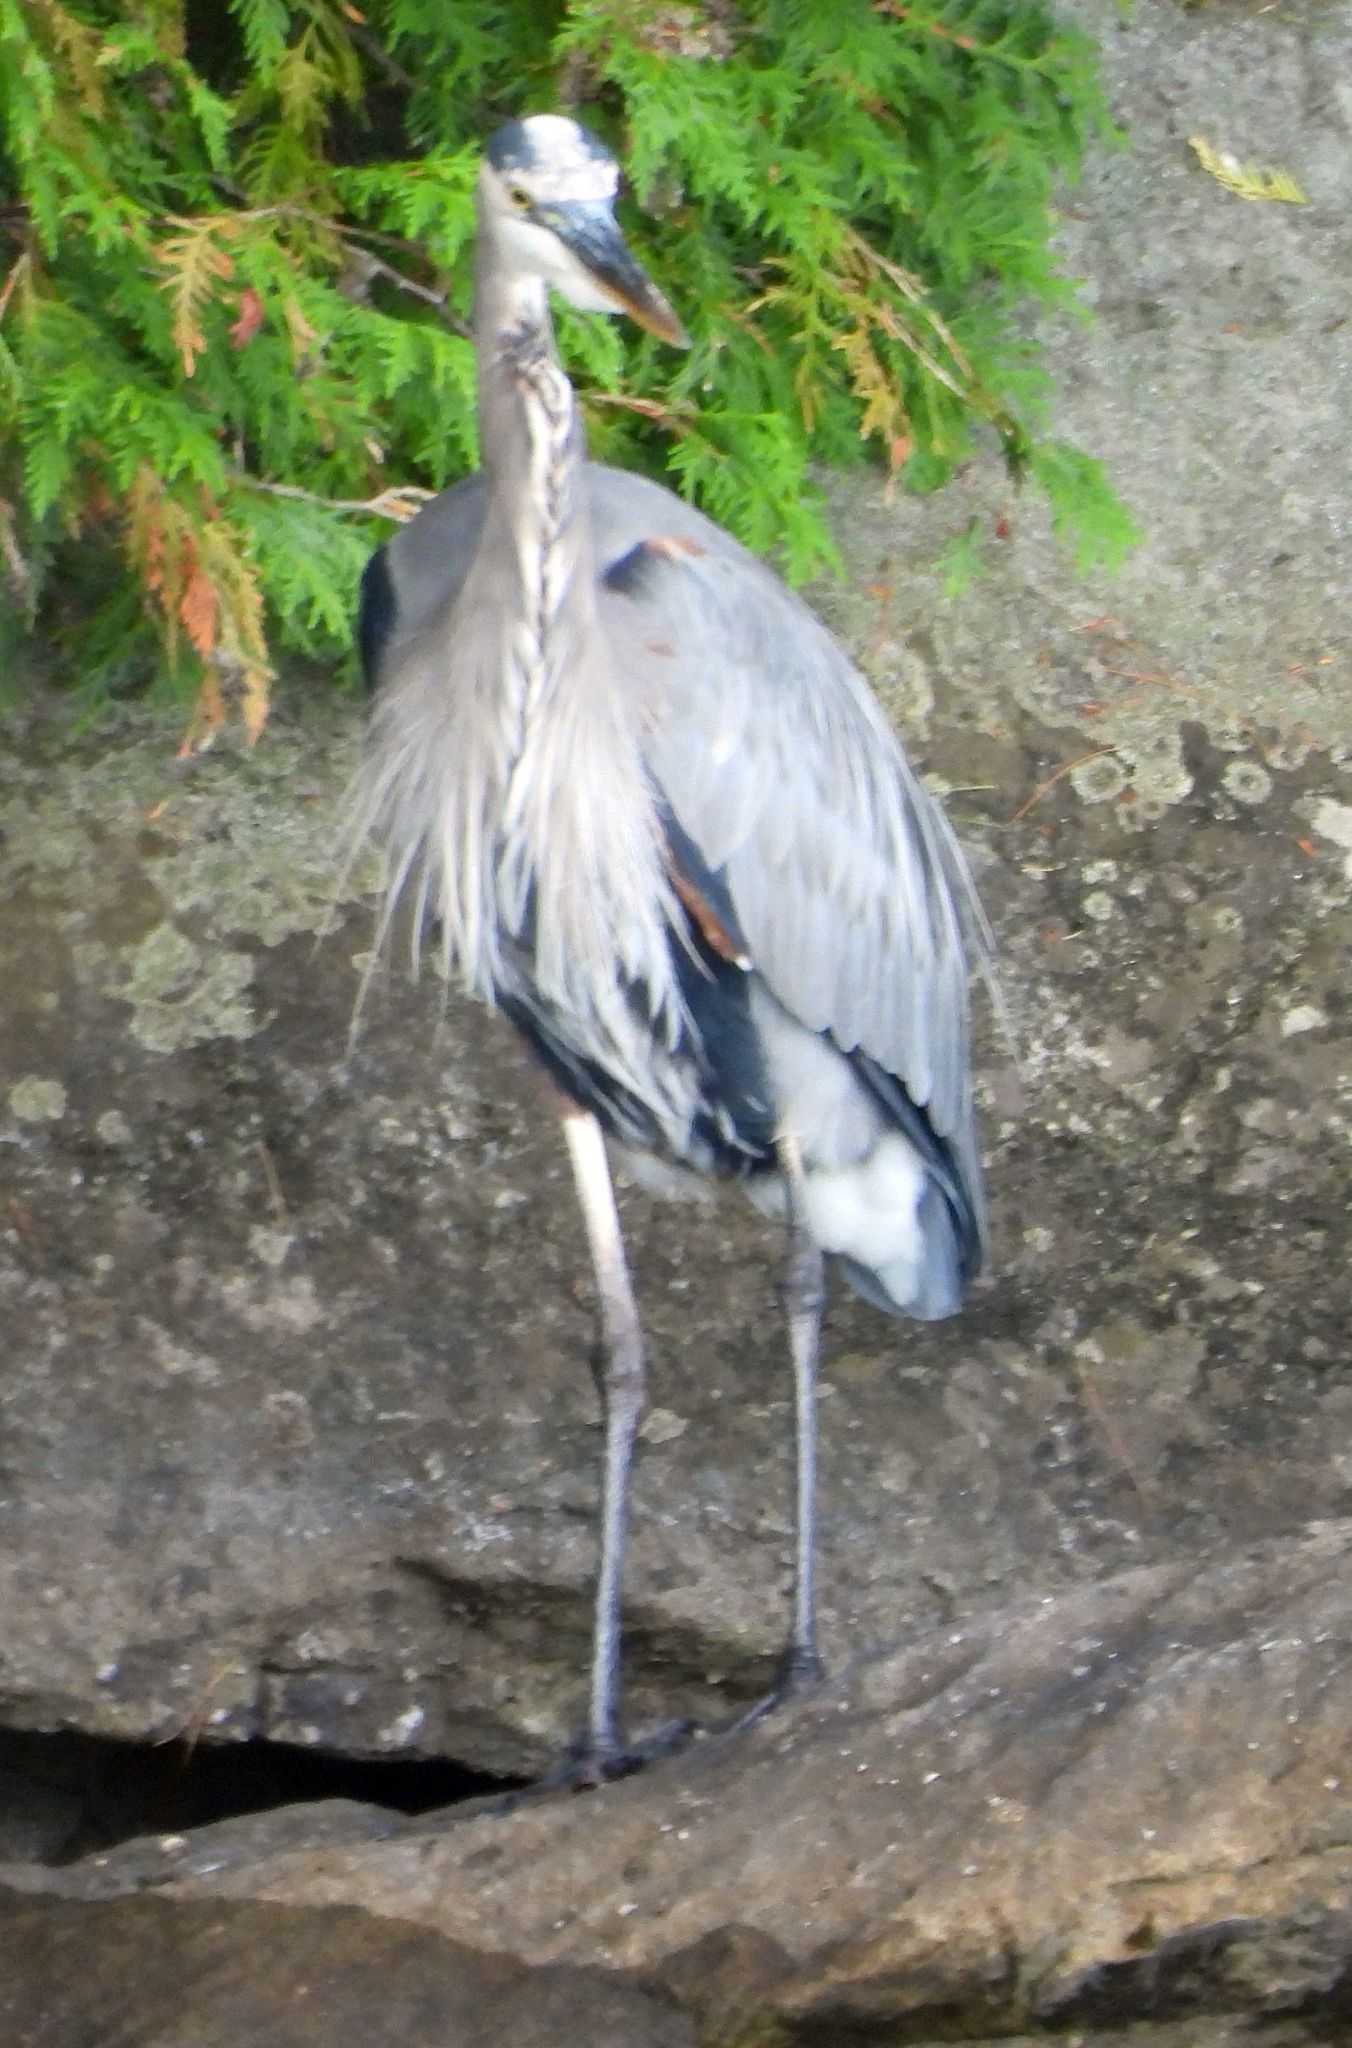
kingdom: Animalia
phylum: Chordata
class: Aves
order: Pelecaniformes
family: Ardeidae
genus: Ardea
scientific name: Ardea herodias
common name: Great blue heron
